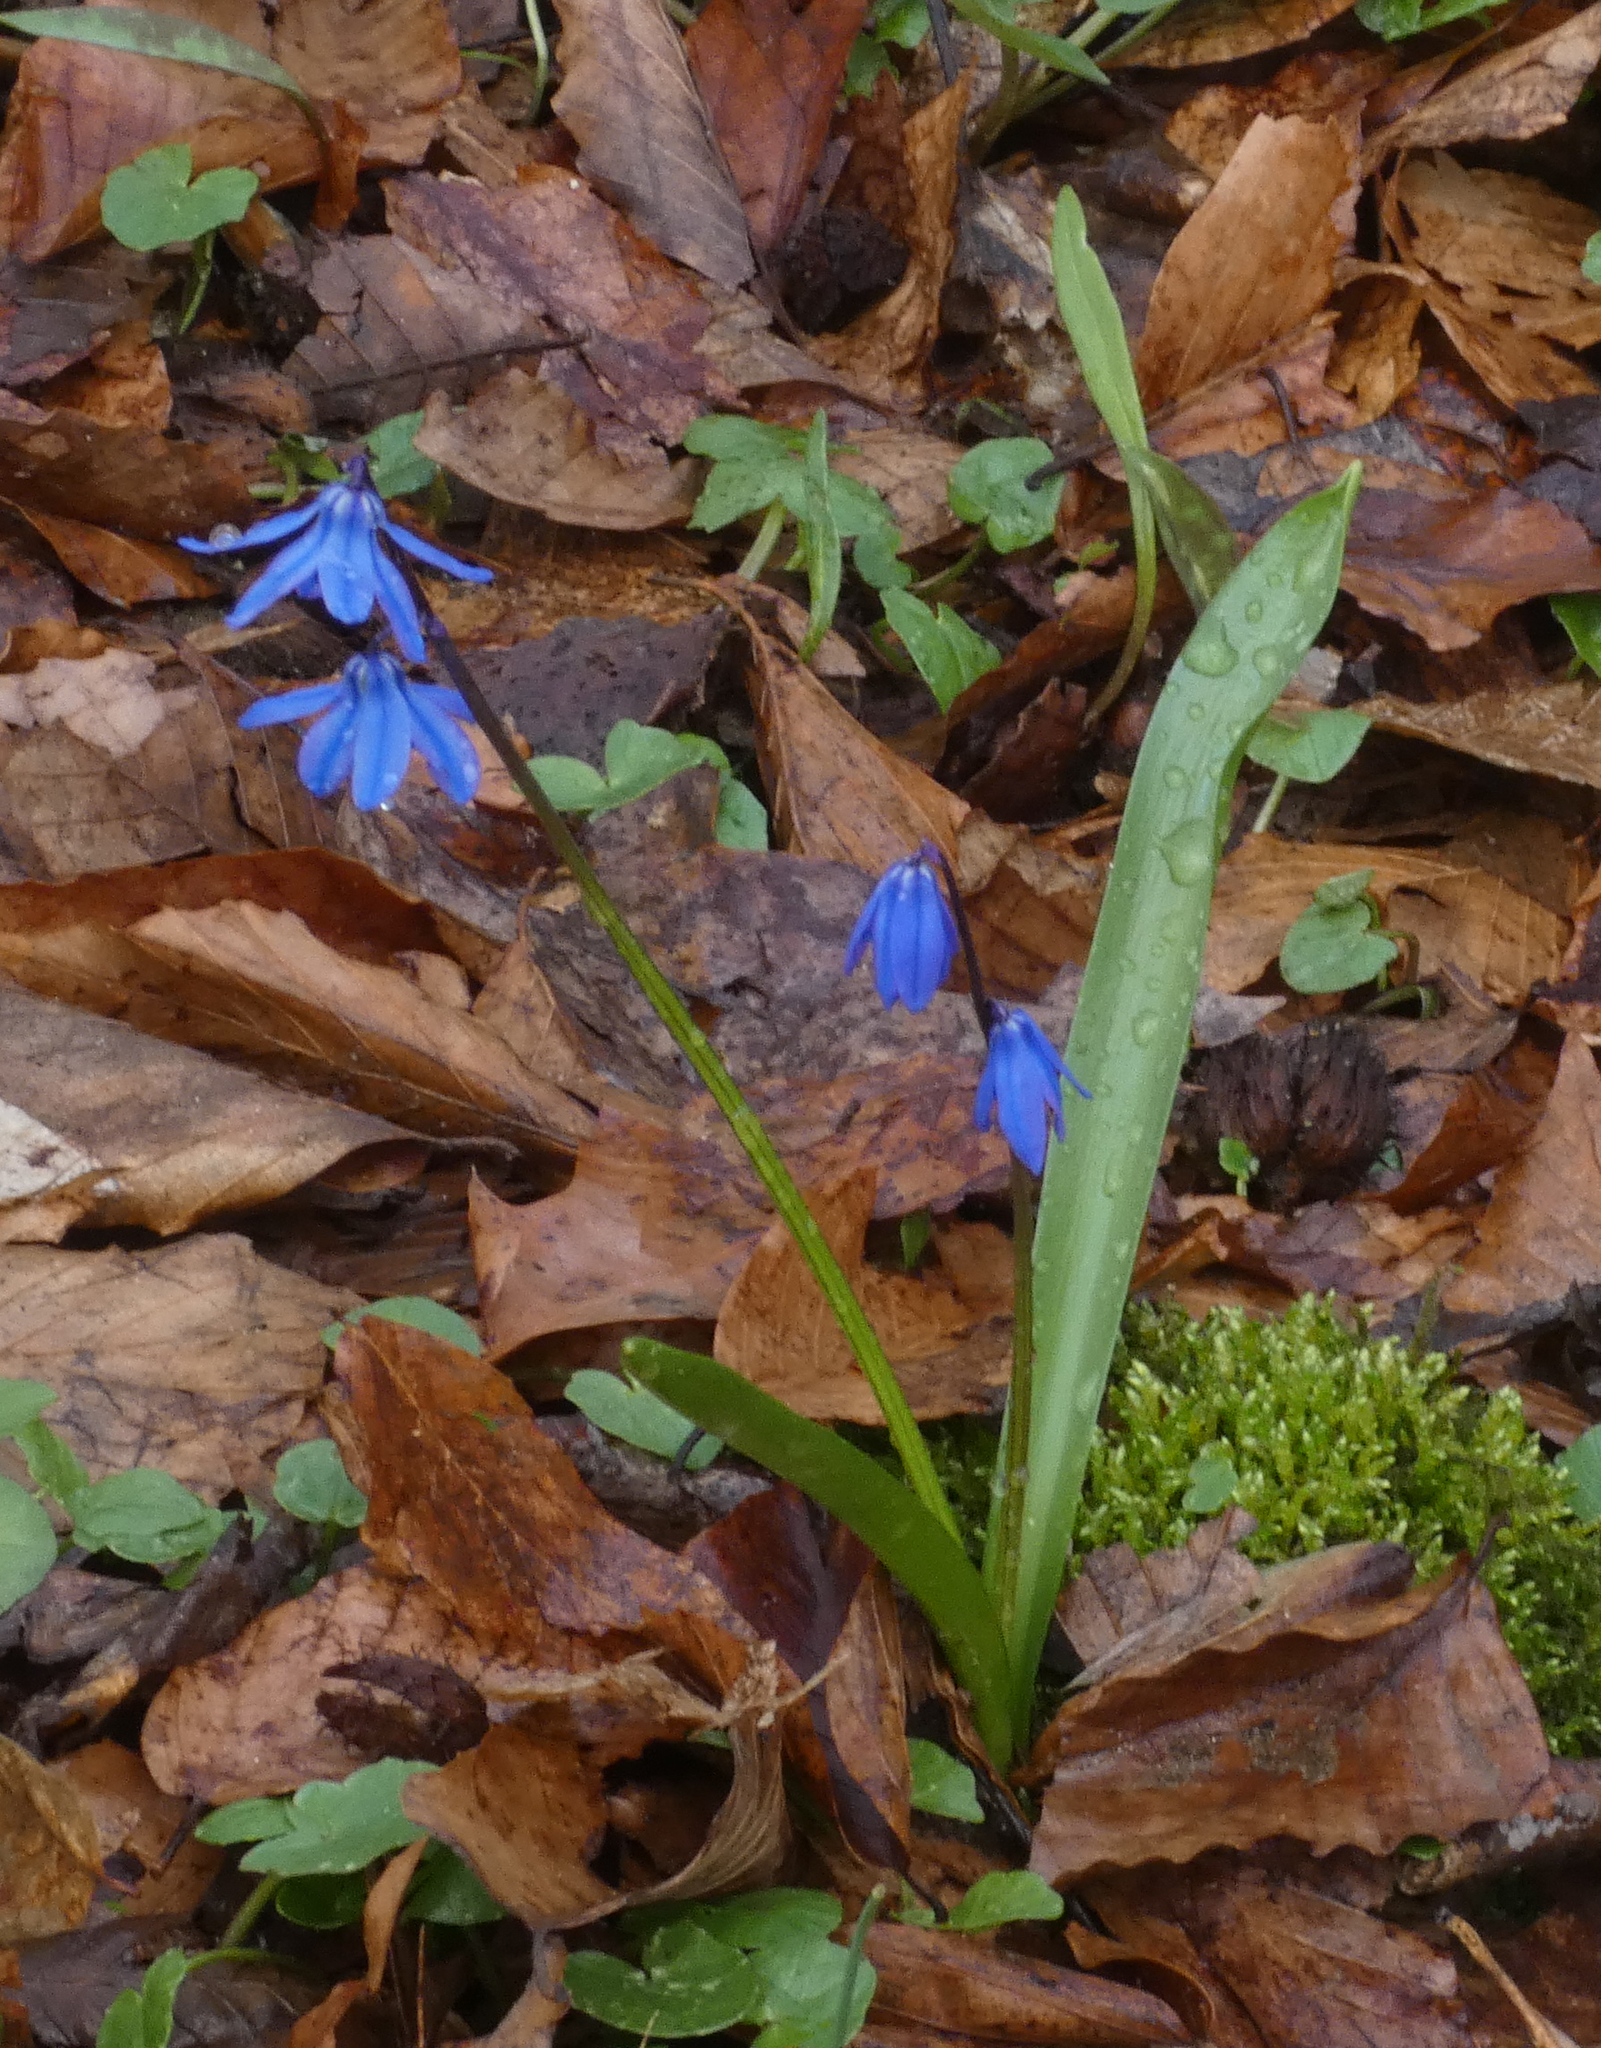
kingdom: Plantae
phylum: Tracheophyta
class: Liliopsida
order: Asparagales
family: Asparagaceae
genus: Scilla
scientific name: Scilla siberica
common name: Siberian squill
